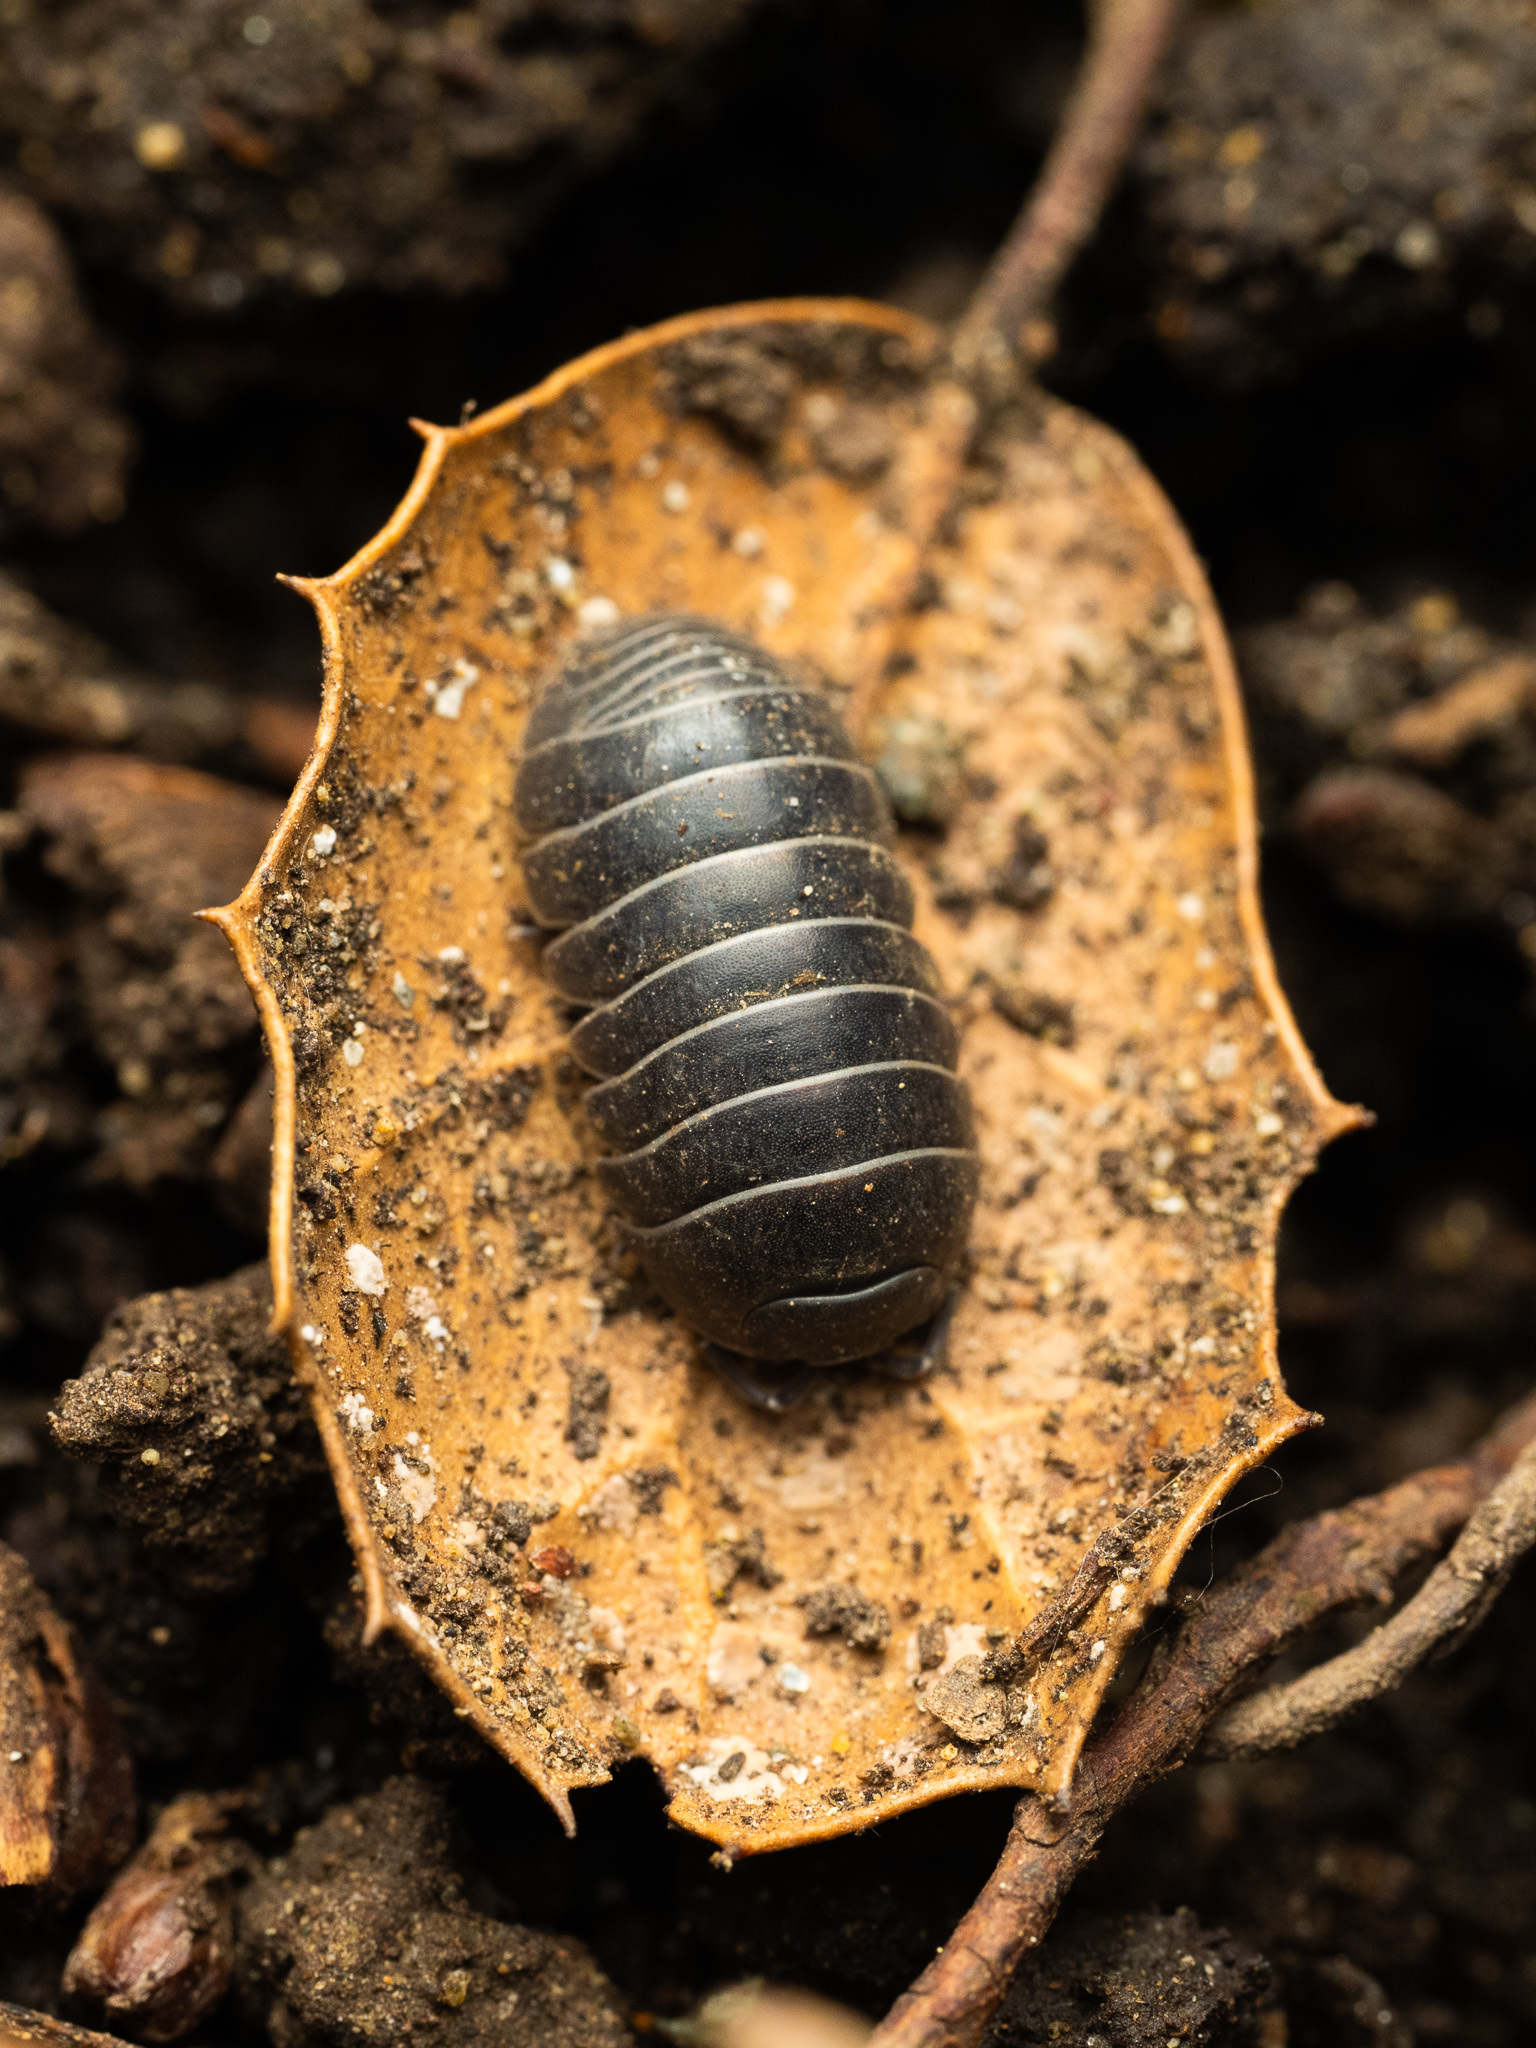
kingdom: Animalia
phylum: Arthropoda
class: Malacostraca
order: Isopoda
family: Armadillidiidae
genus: Armadillidium
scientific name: Armadillidium vulgare
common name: Common pill woodlouse
